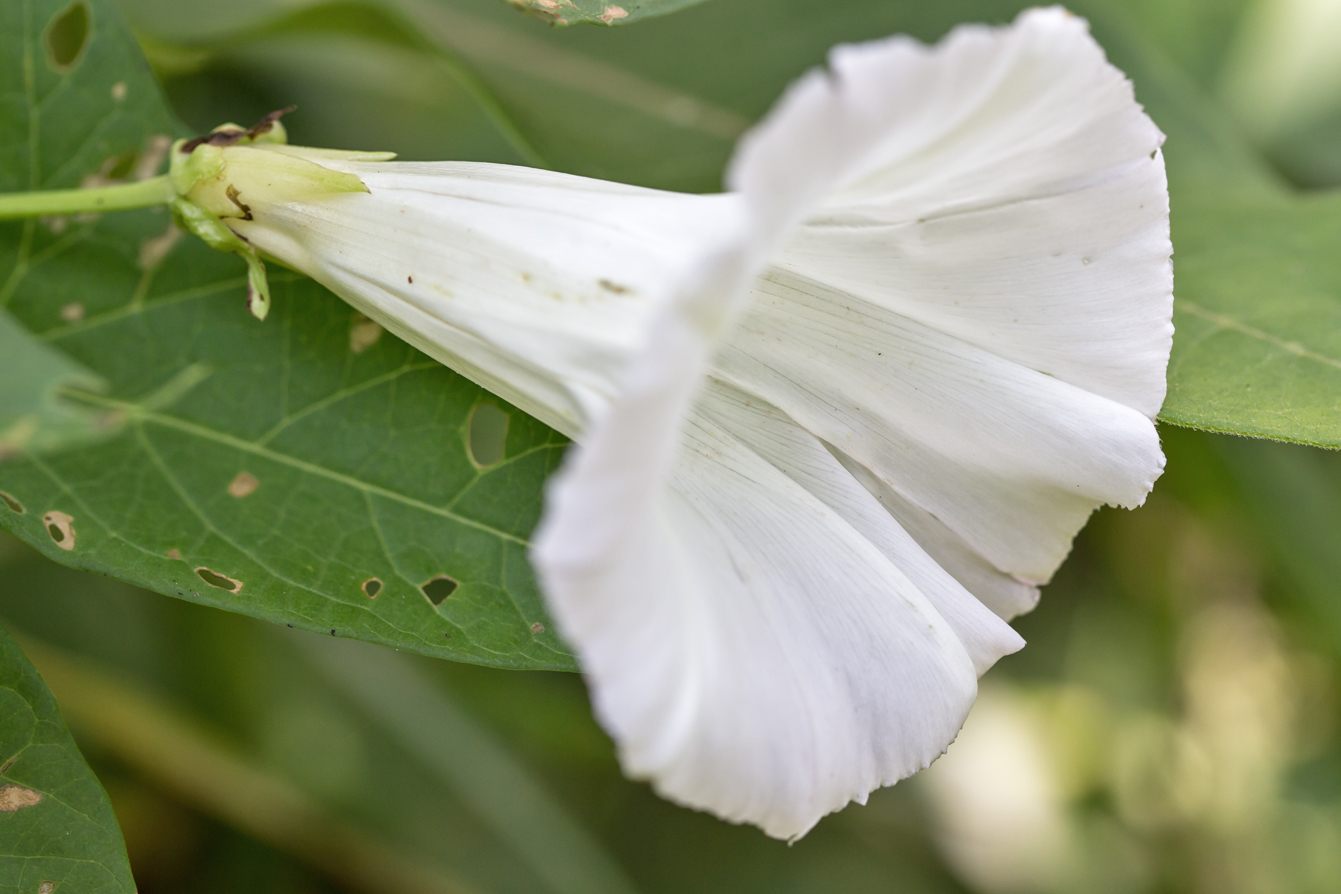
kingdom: Plantae
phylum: Tracheophyta
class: Magnoliopsida
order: Solanales
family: Convolvulaceae
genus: Calystegia
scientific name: Calystegia sepium
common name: Hedge bindweed
